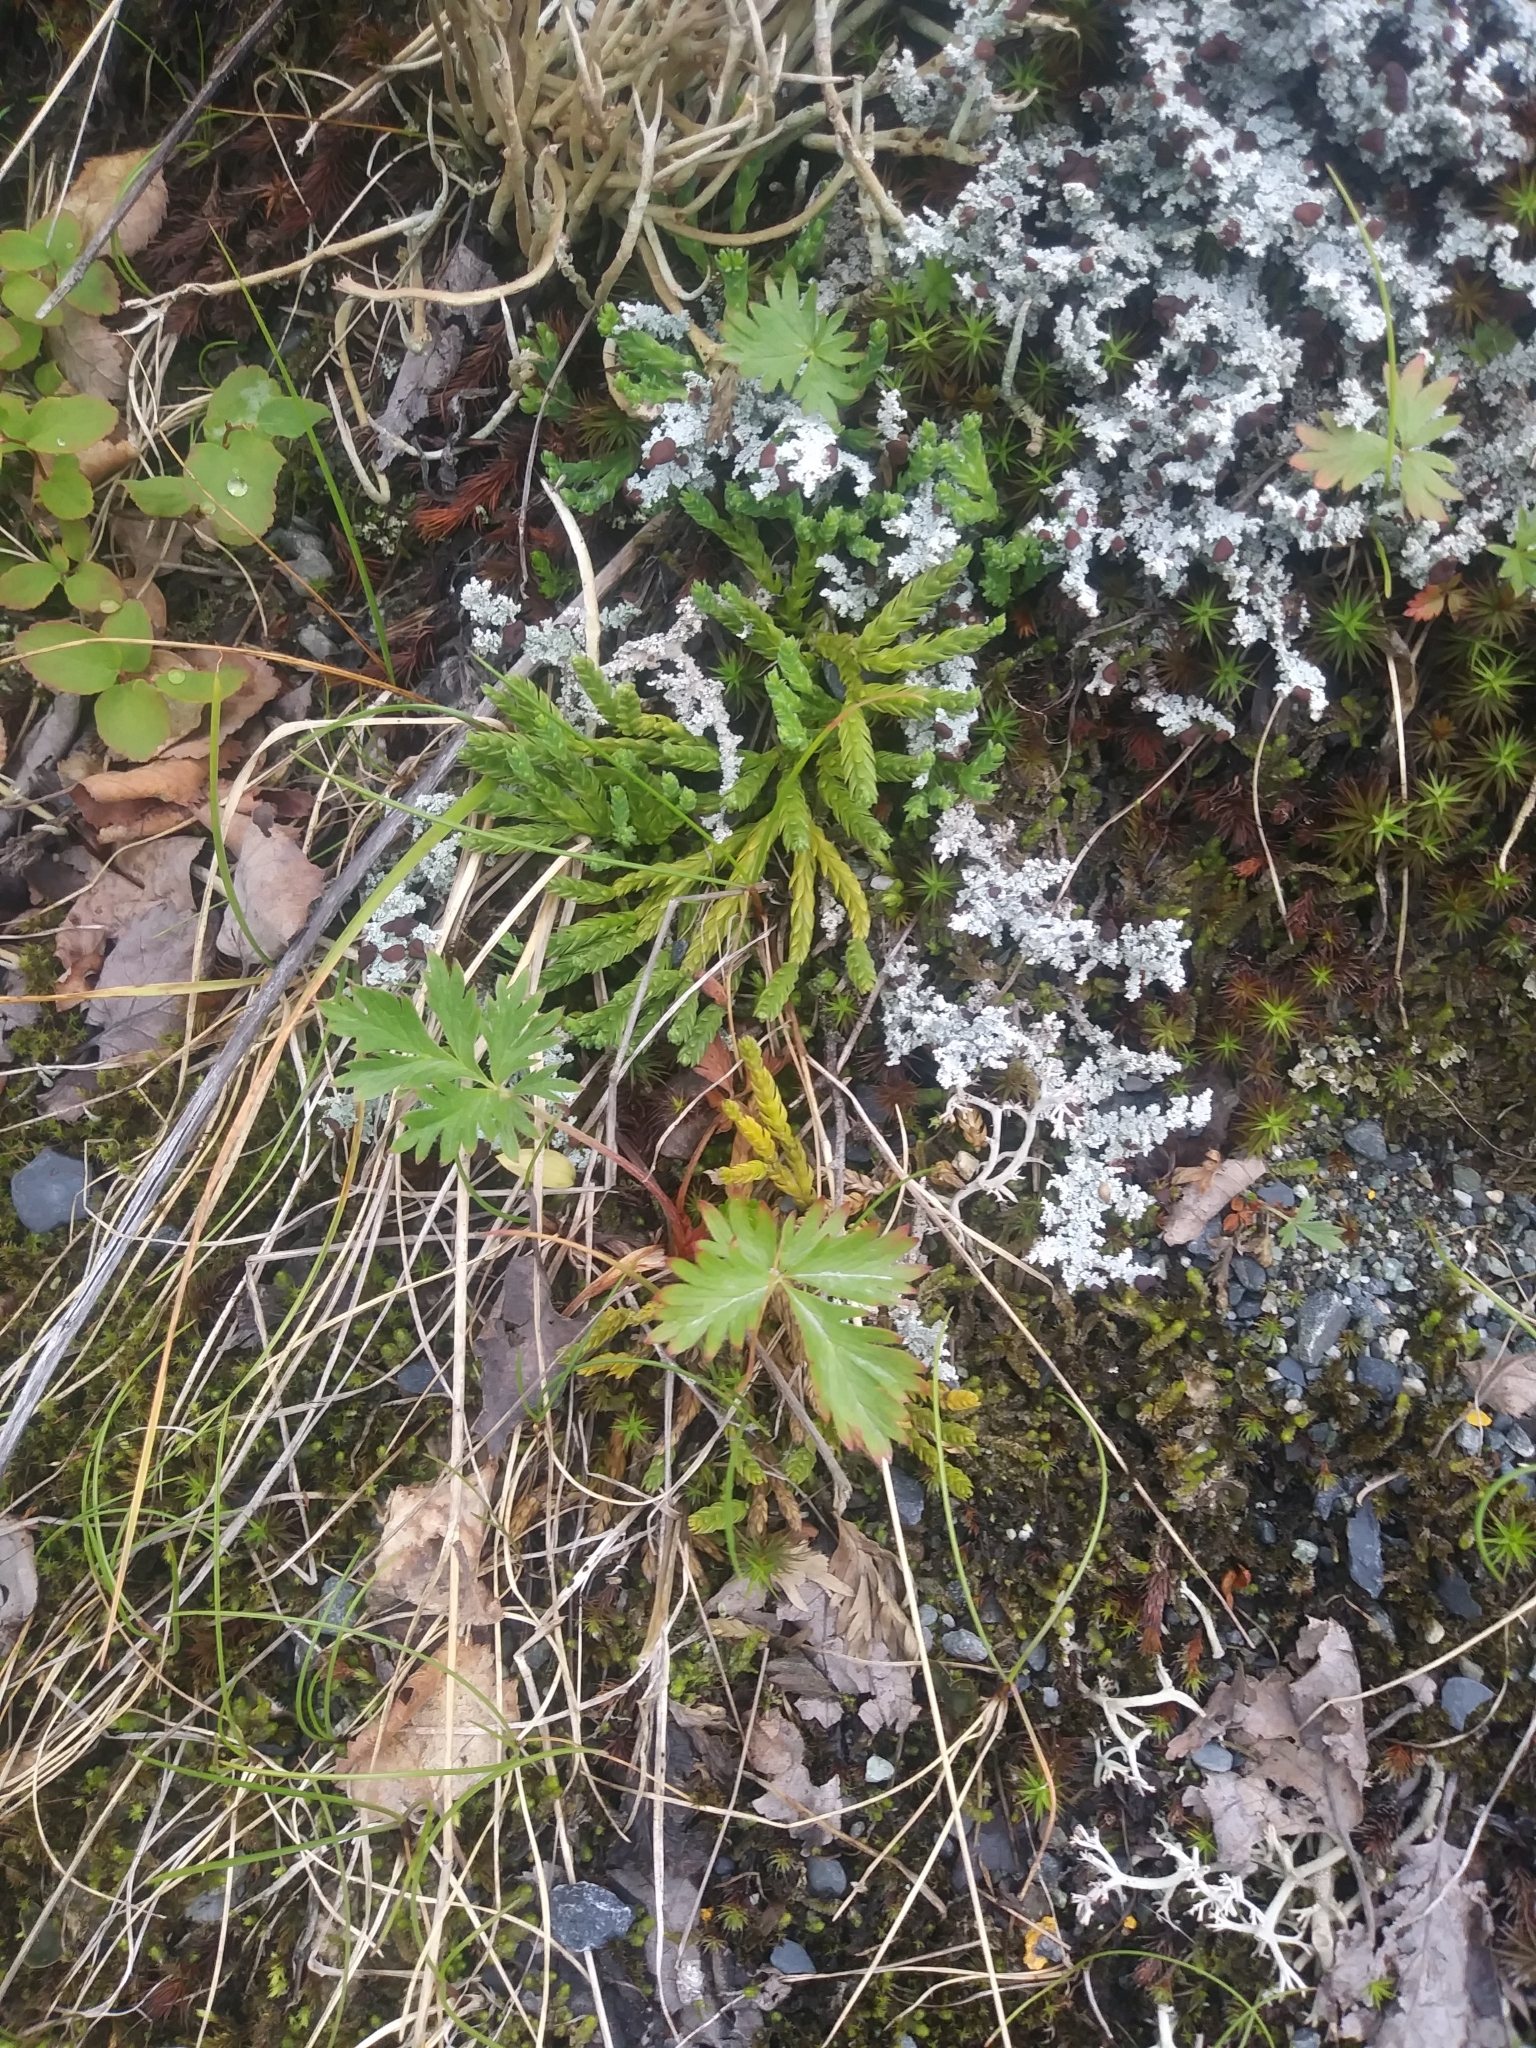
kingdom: Plantae
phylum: Tracheophyta
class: Lycopodiopsida
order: Lycopodiales
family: Lycopodiaceae
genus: Diphasiastrum
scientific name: Diphasiastrum alpinum
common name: Alpine clubmoss
